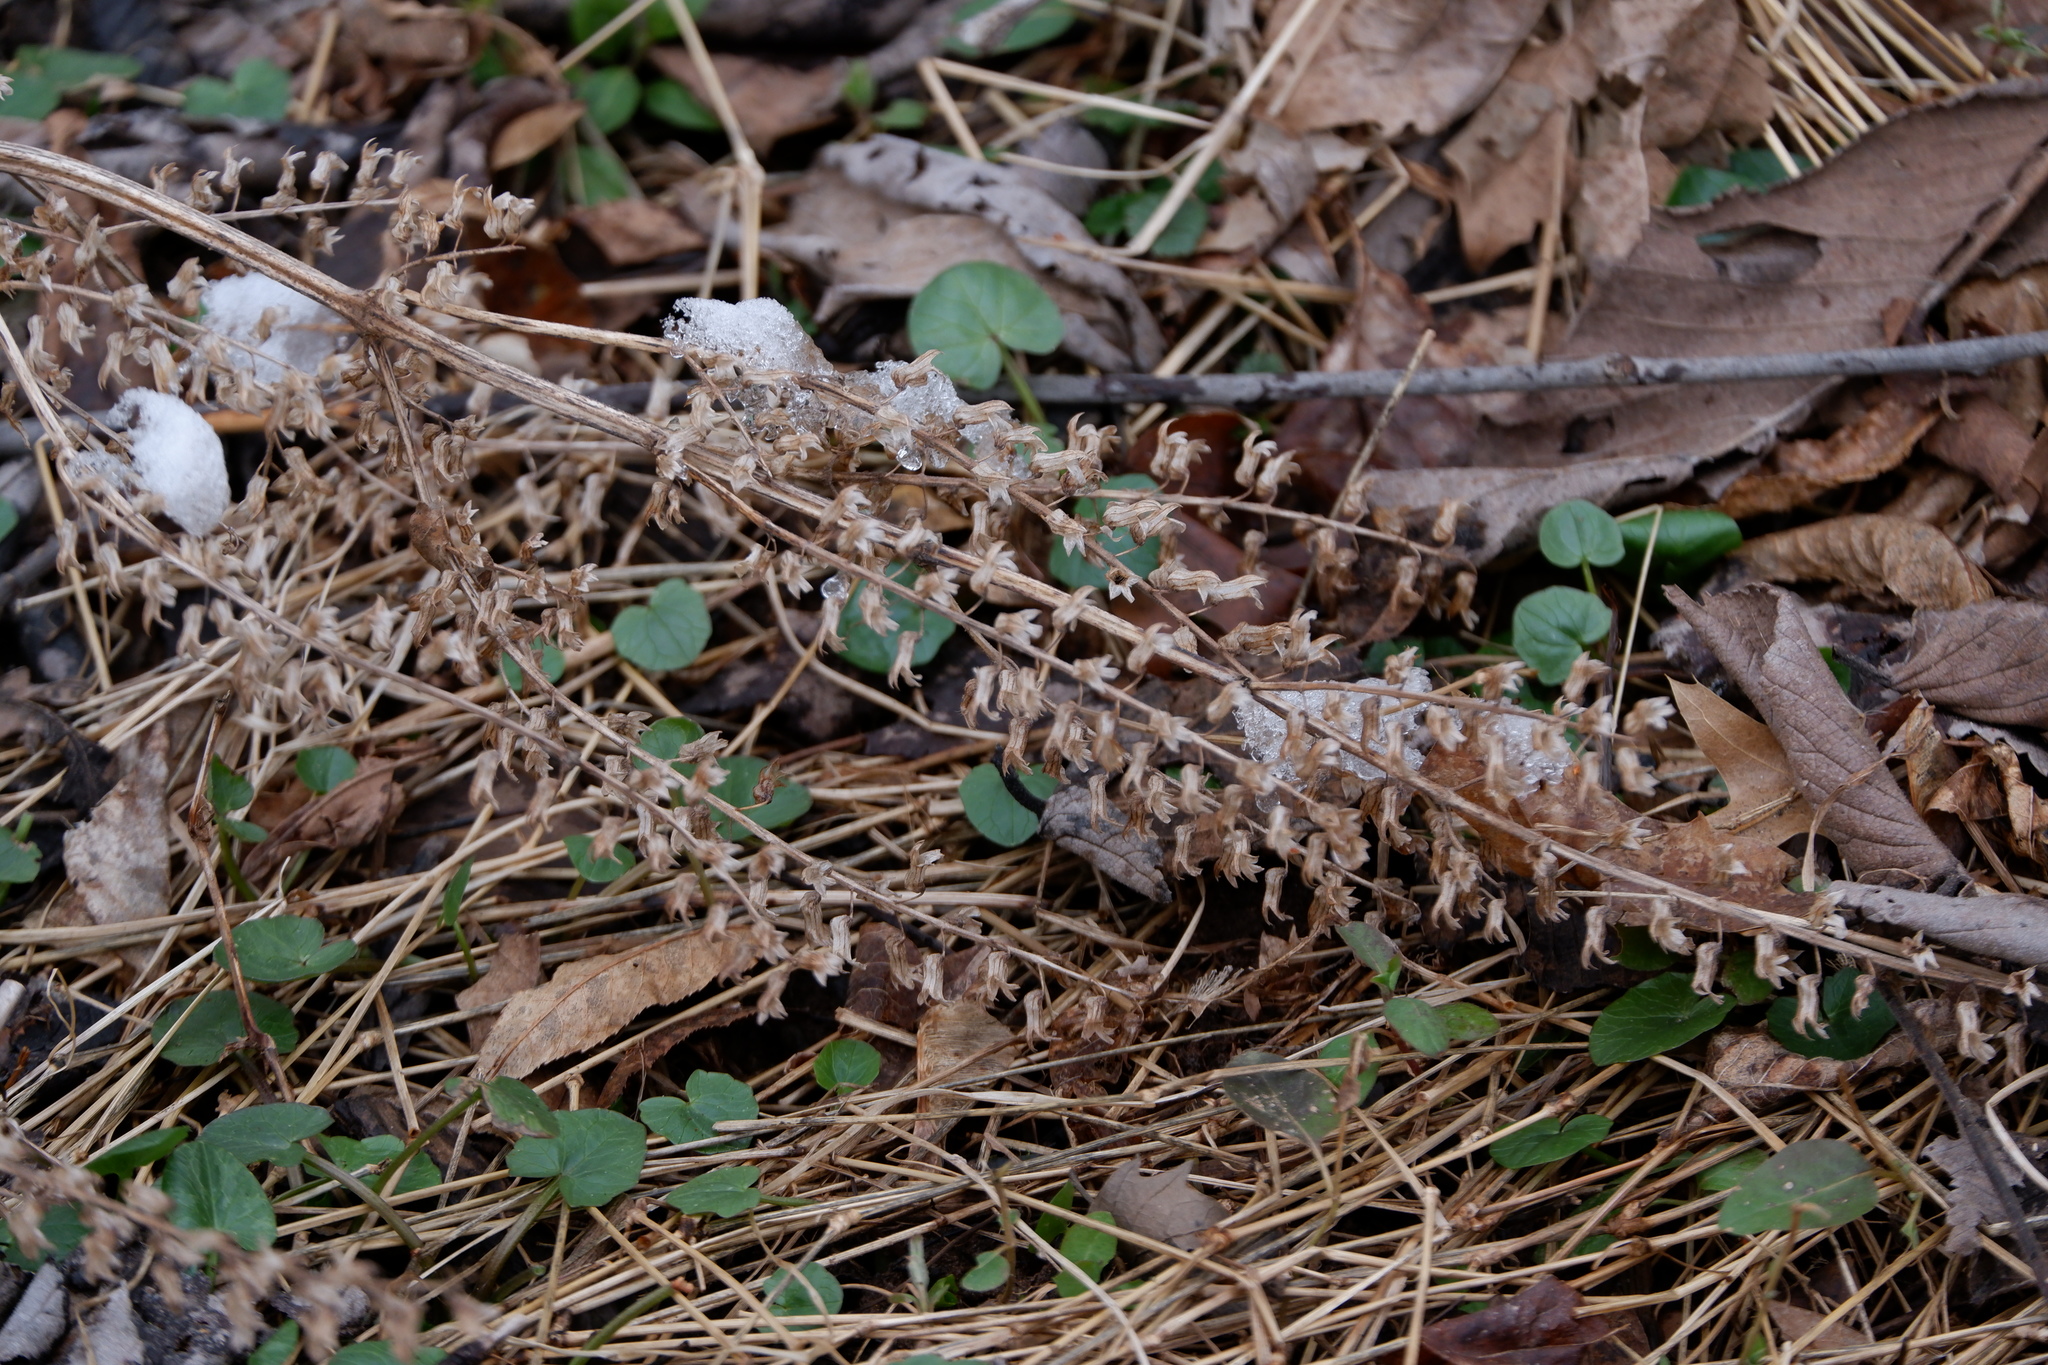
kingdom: Plantae
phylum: Tracheophyta
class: Magnoliopsida
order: Lamiales
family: Lamiaceae
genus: Perilla
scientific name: Perilla frutescens
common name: Perilla
